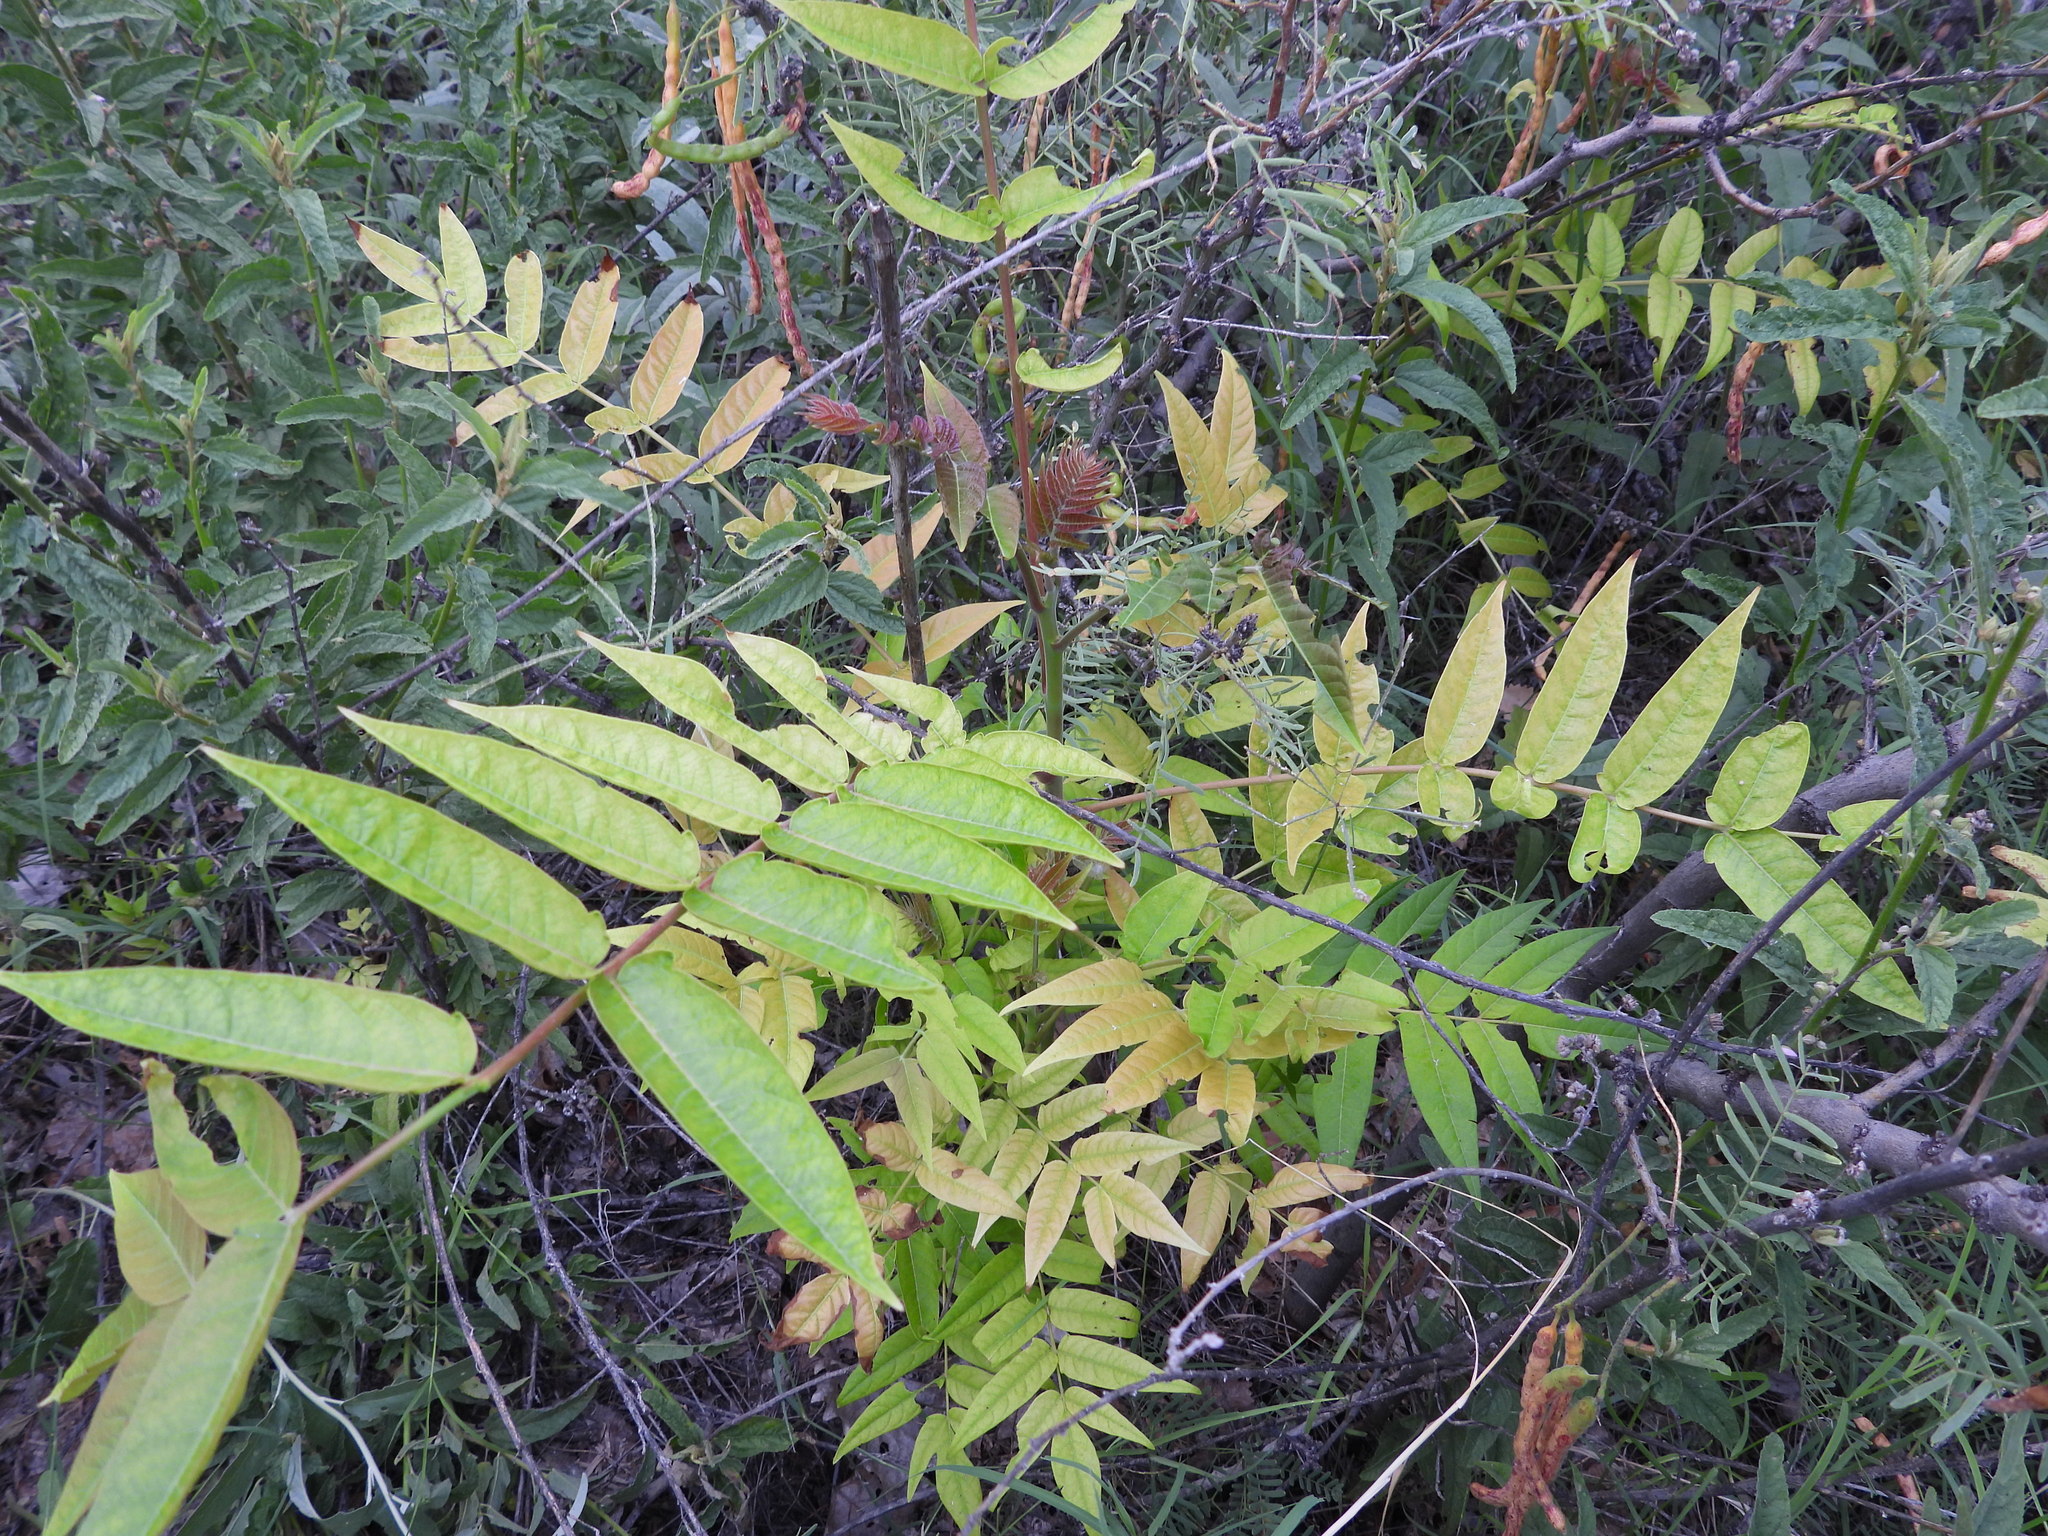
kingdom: Plantae
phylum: Tracheophyta
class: Magnoliopsida
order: Sapindales
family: Simaroubaceae
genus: Ailanthus
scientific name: Ailanthus altissima
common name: Tree-of-heaven
